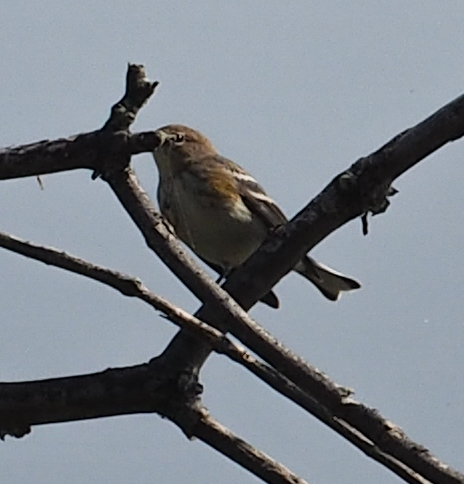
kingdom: Animalia
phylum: Chordata
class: Aves
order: Passeriformes
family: Parulidae
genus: Setophaga
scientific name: Setophaga coronata
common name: Myrtle warbler
